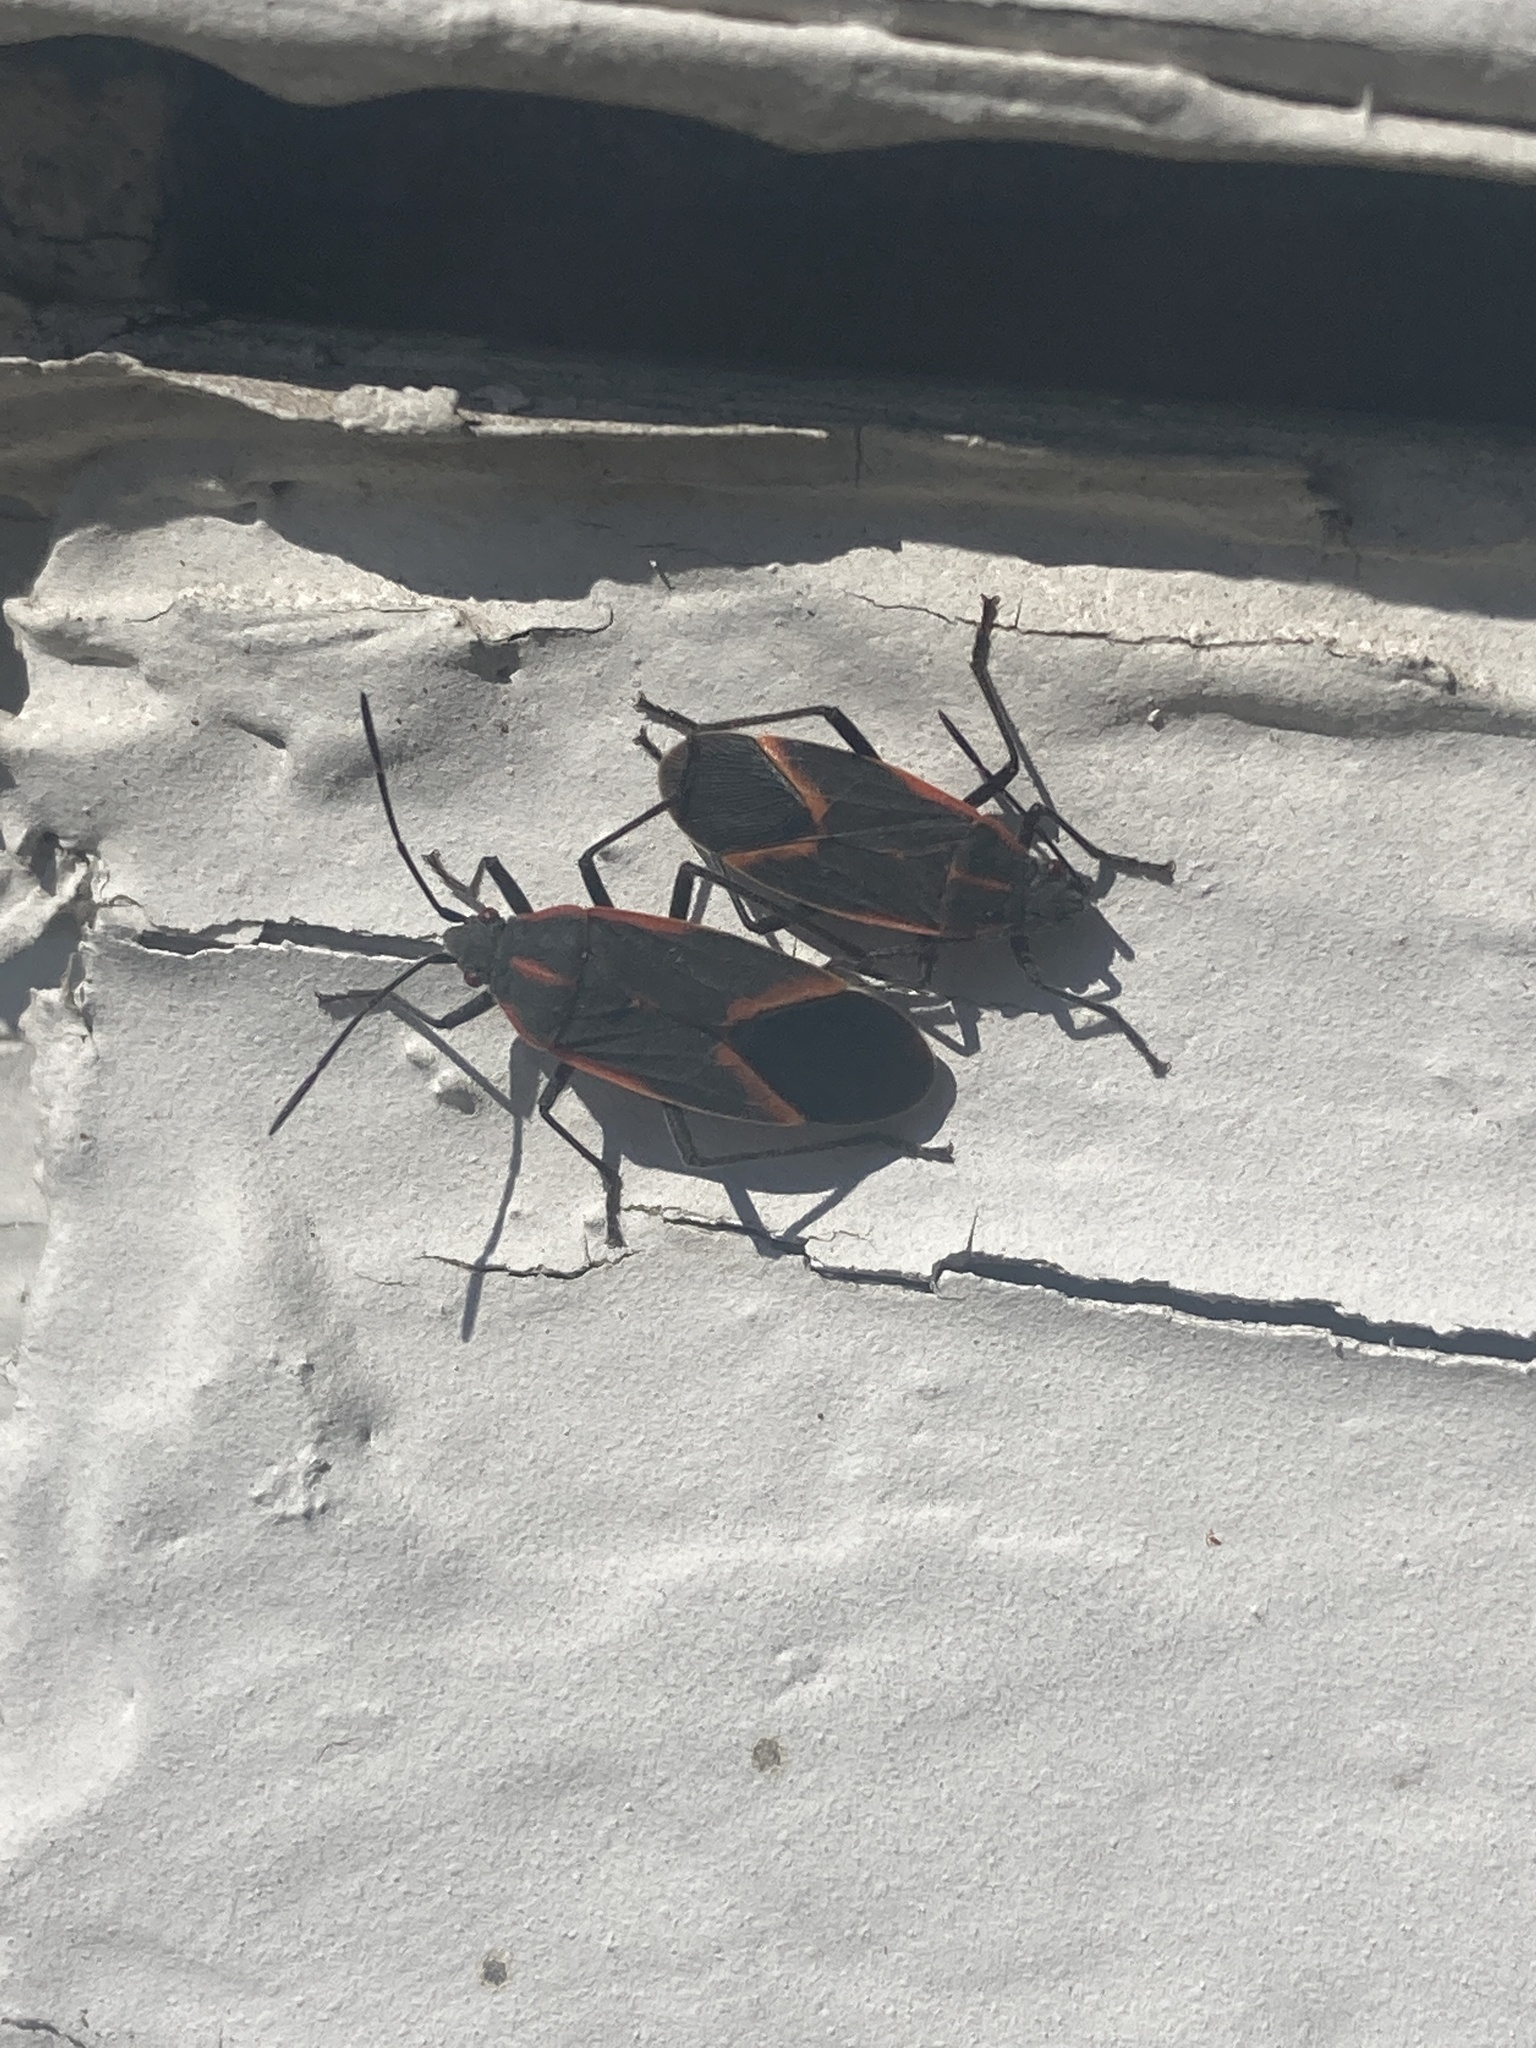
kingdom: Animalia
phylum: Arthropoda
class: Insecta
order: Hemiptera
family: Rhopalidae
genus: Boisea
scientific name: Boisea trivittata
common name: Boxelder bug
